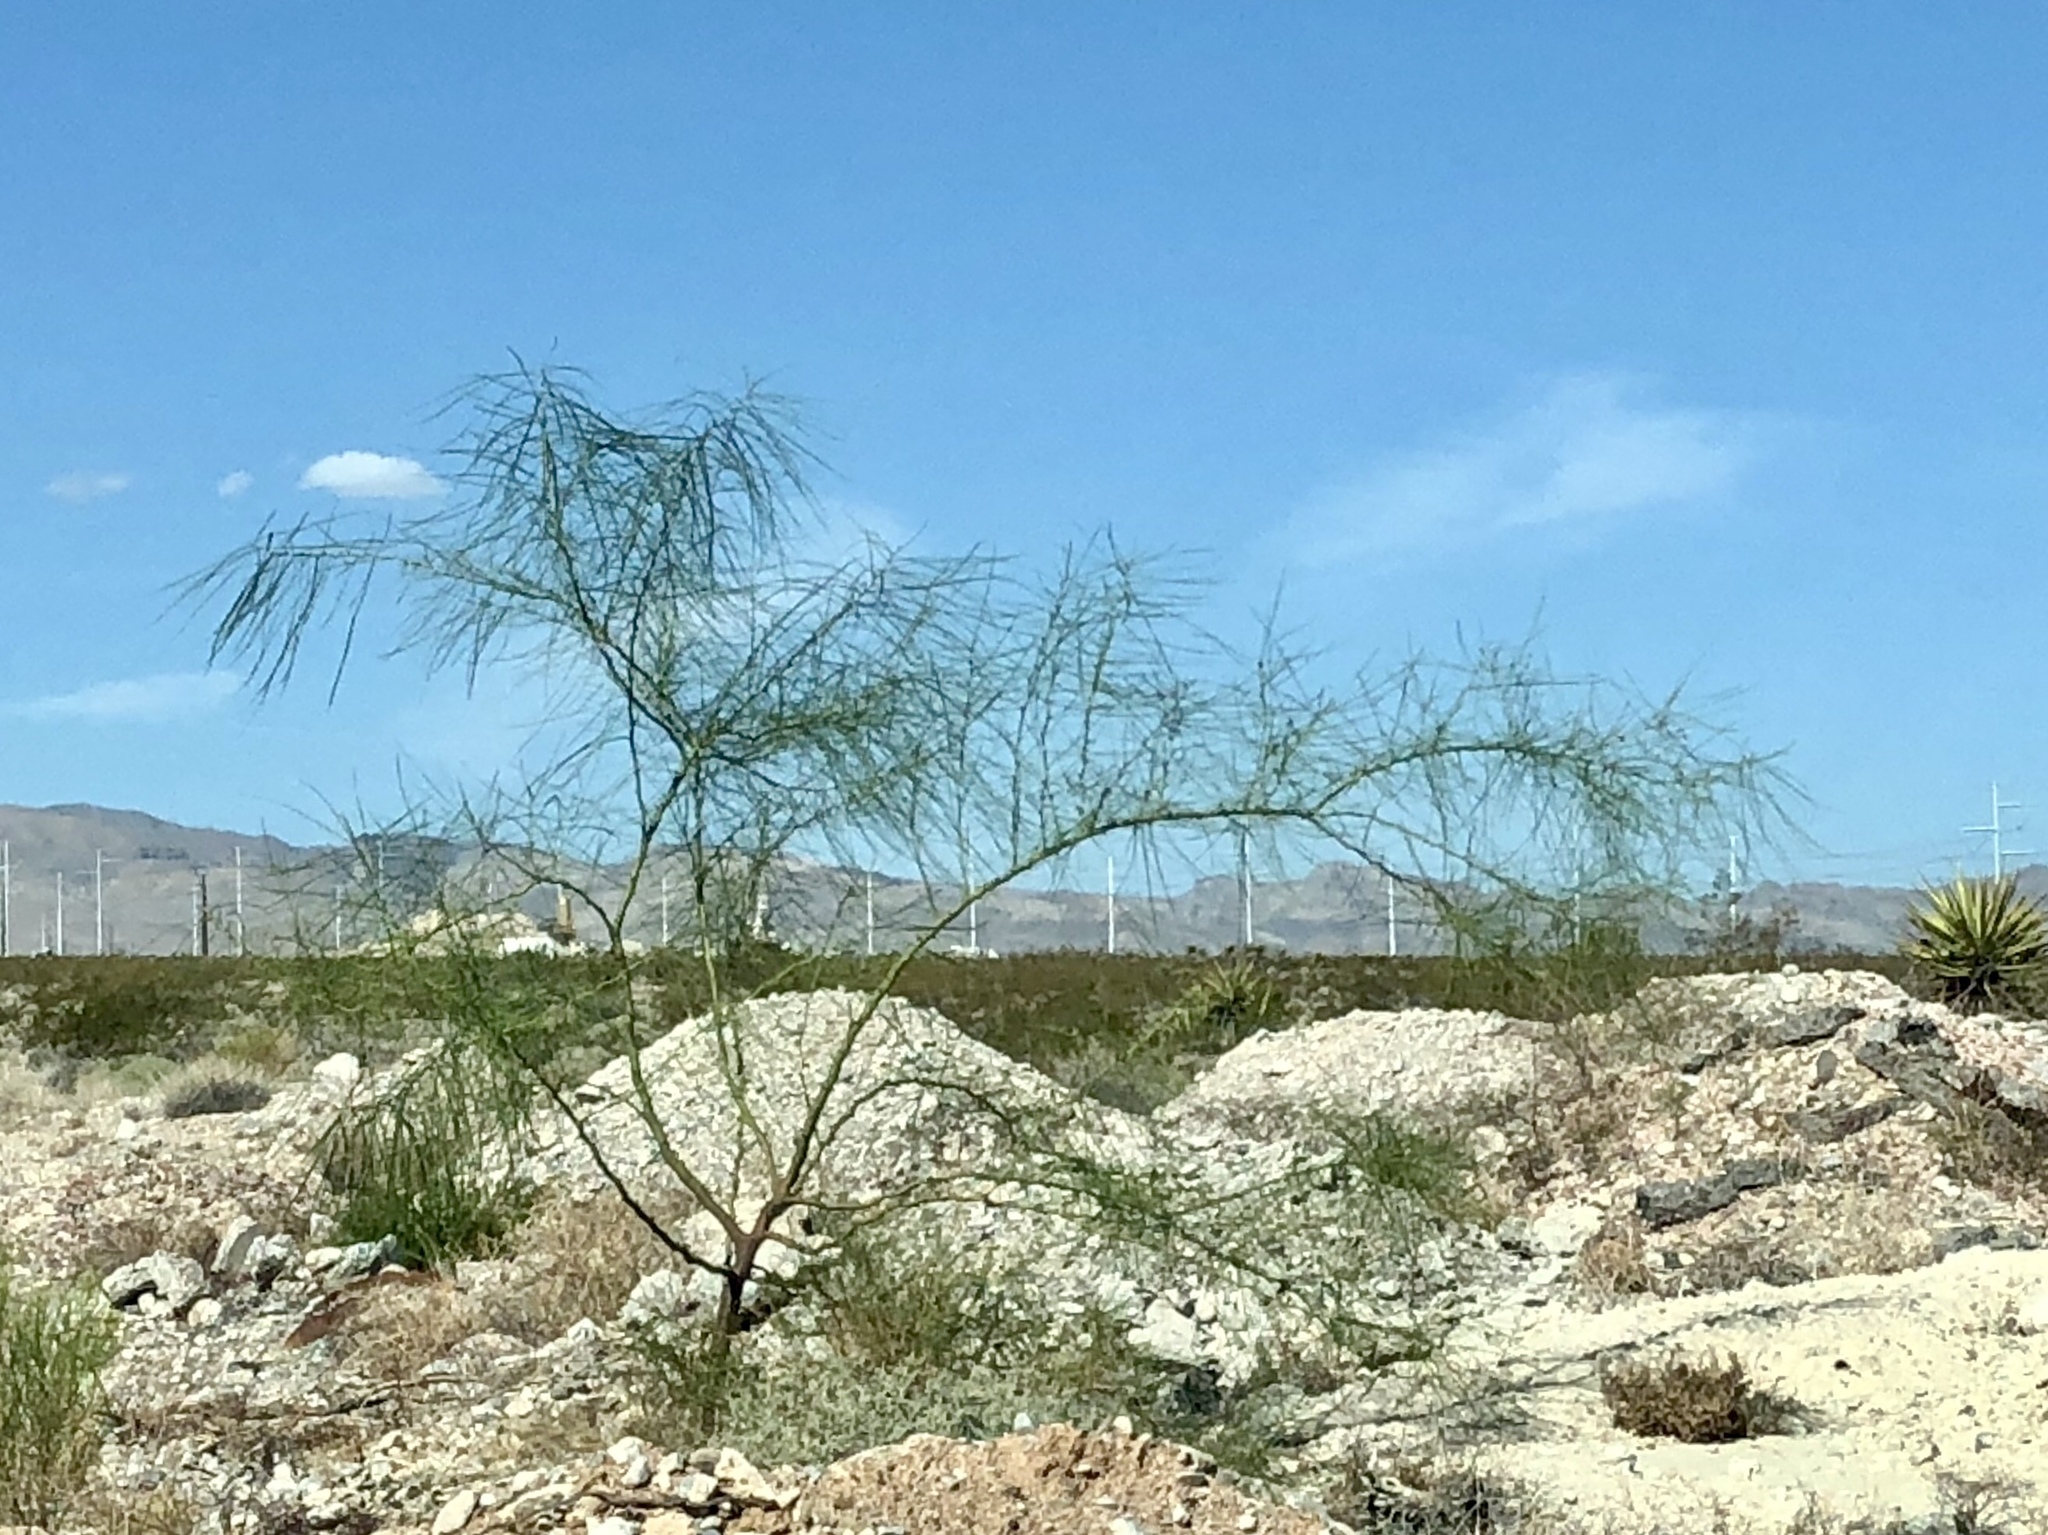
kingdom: Plantae
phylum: Tracheophyta
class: Magnoliopsida
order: Fabales
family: Fabaceae
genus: Parkinsonia
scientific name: Parkinsonia aculeata
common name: Jerusalem thorn
